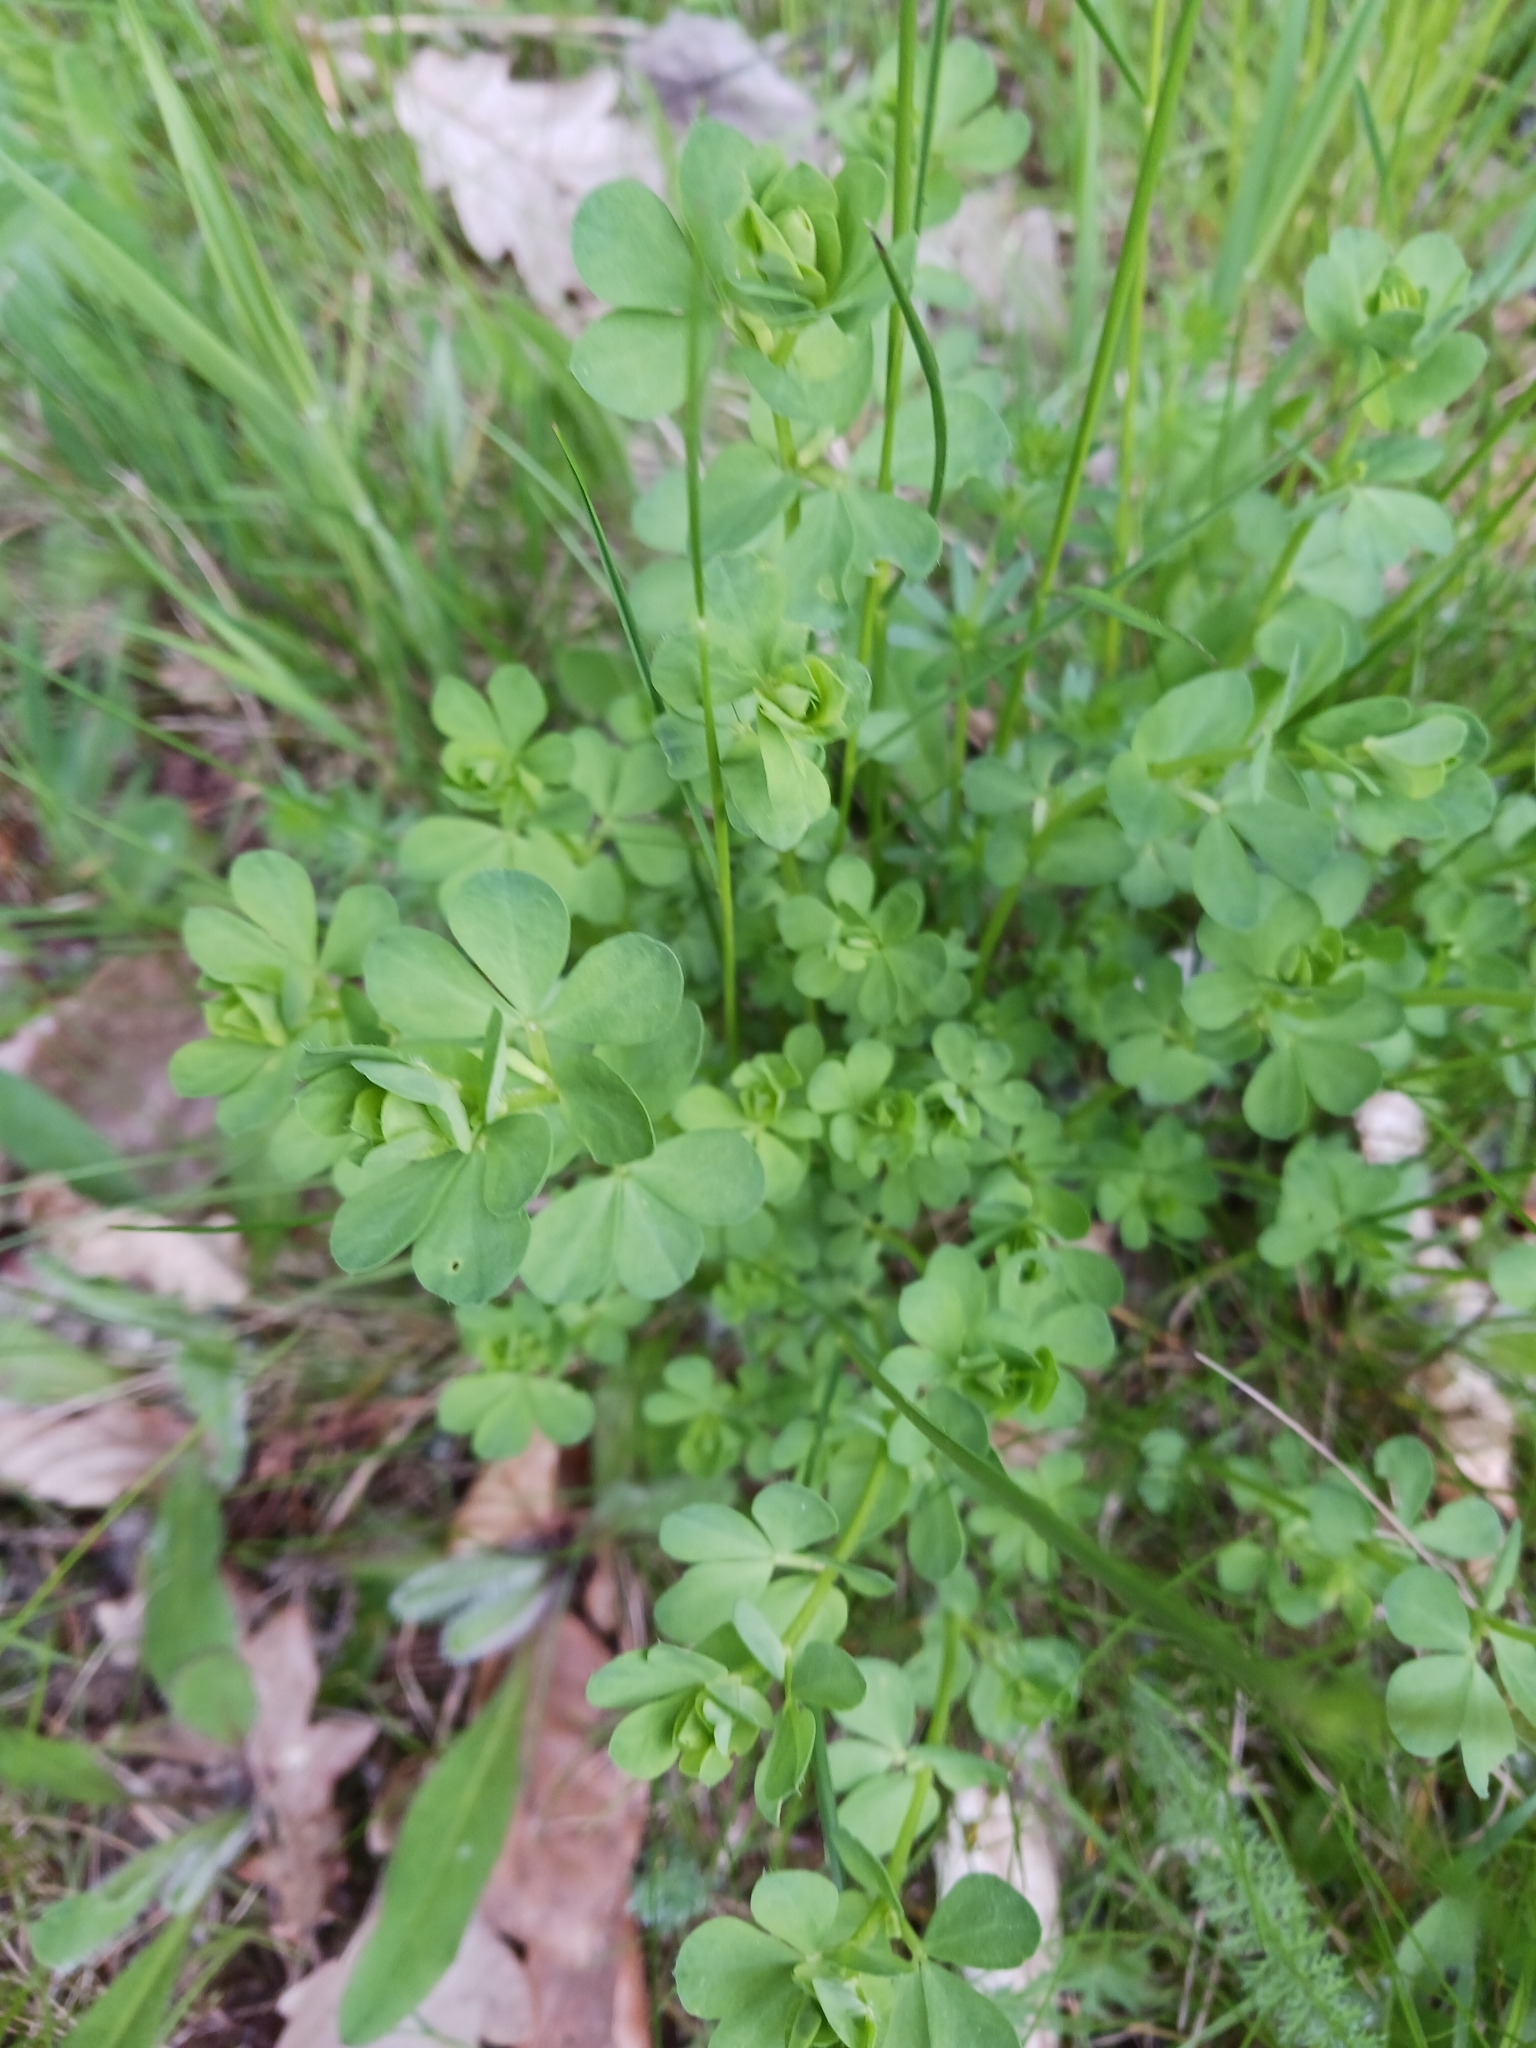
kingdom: Plantae
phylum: Tracheophyta
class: Magnoliopsida
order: Fabales
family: Fabaceae
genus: Lotus
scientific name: Lotus corniculatus
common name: Common bird's-foot-trefoil
